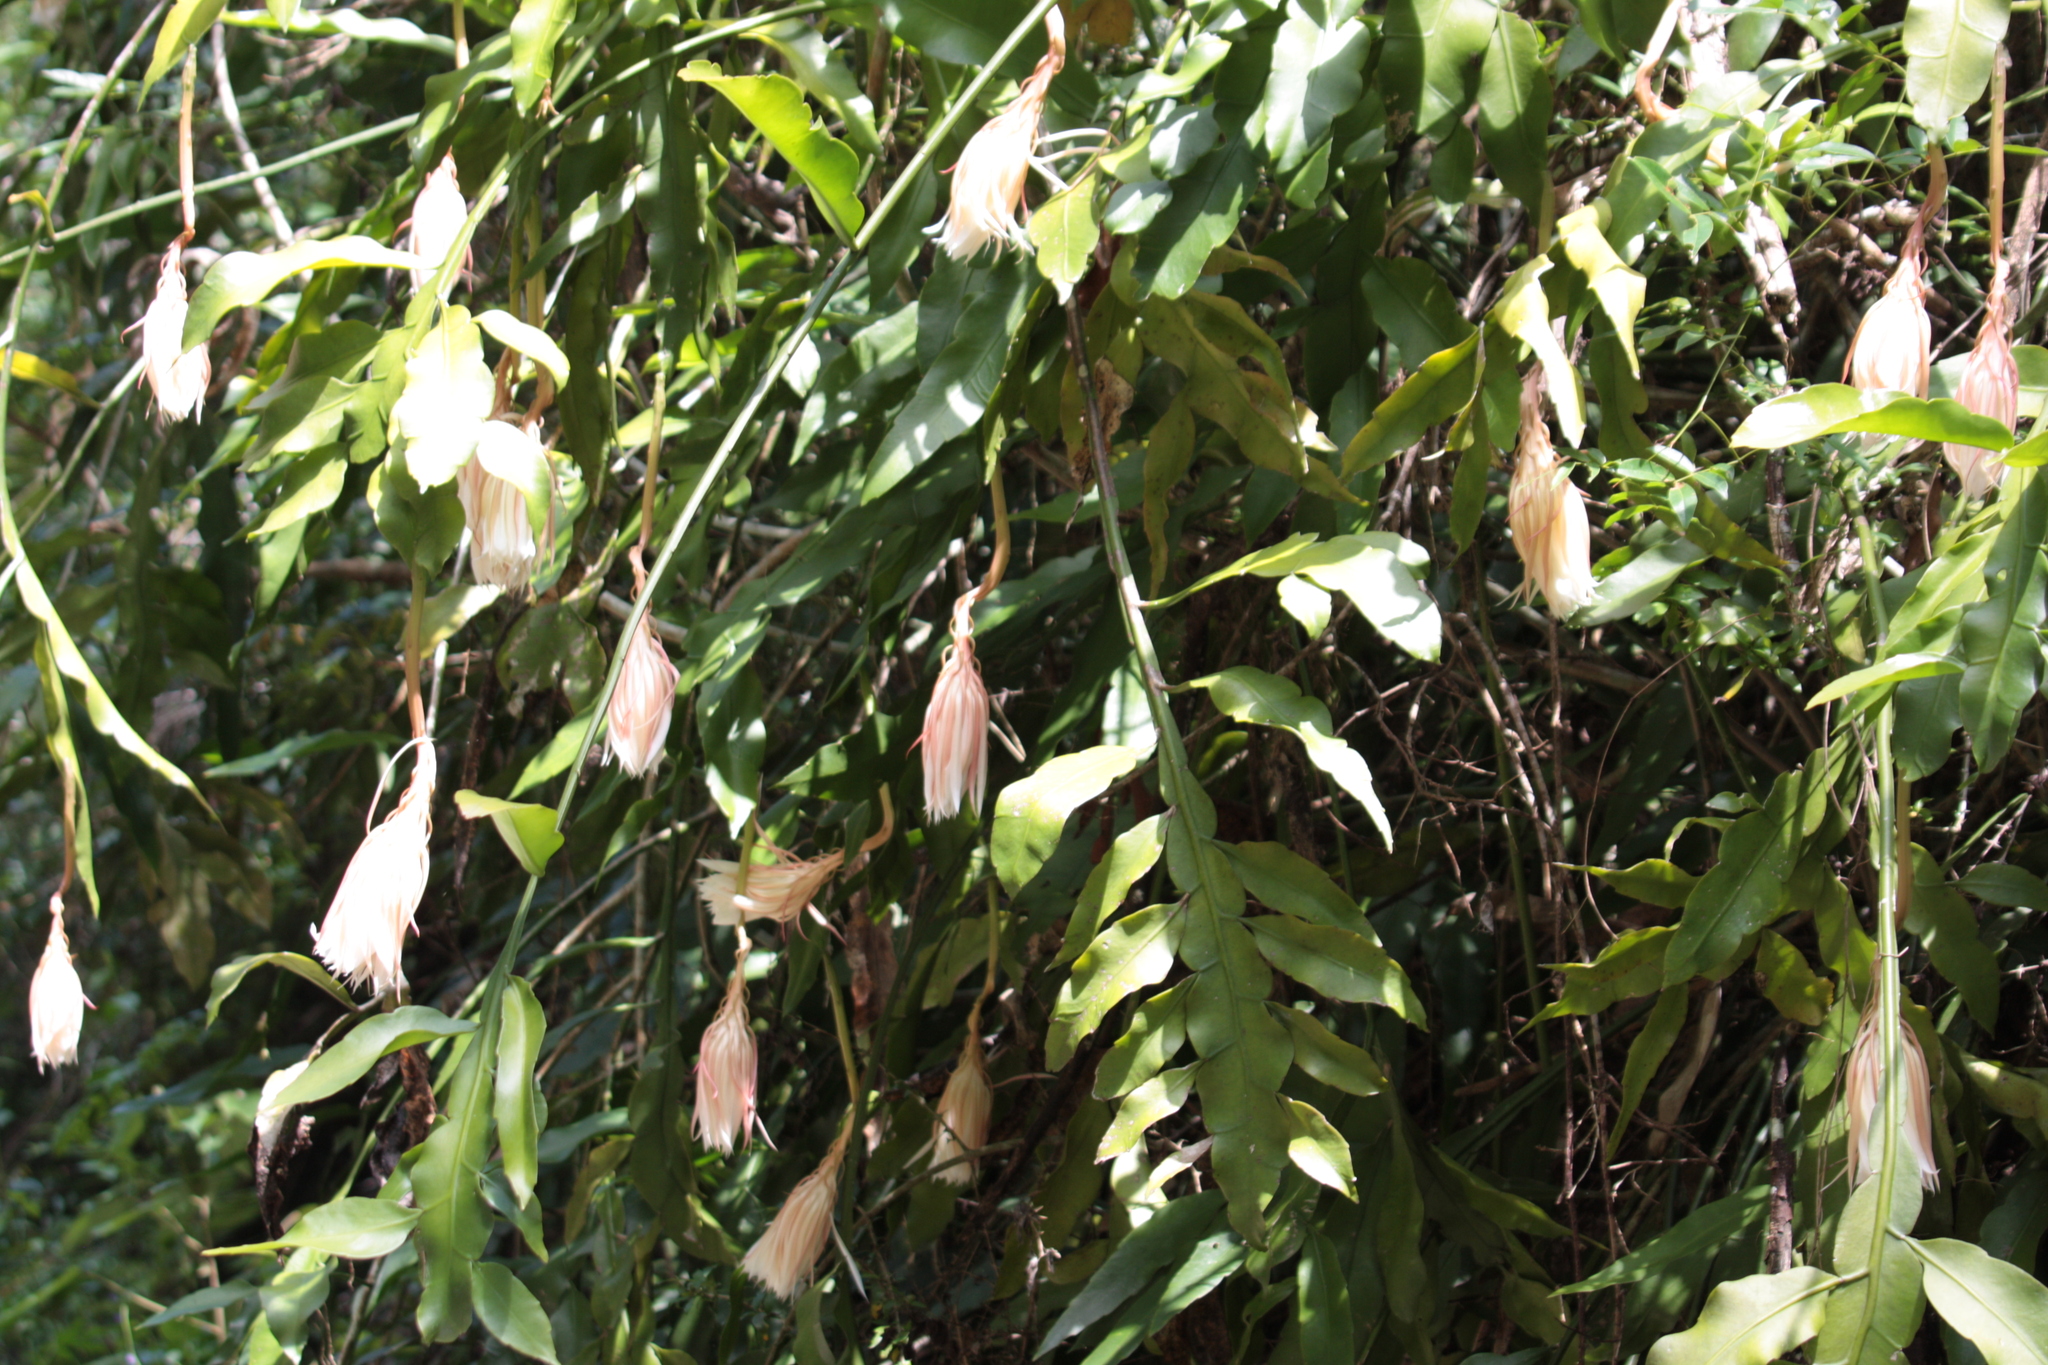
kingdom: Plantae
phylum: Tracheophyta
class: Magnoliopsida
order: Caryophyllales
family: Cactaceae
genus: Epiphyllum
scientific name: Epiphyllum oxypetalum
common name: Dutchman's pipe cactus
